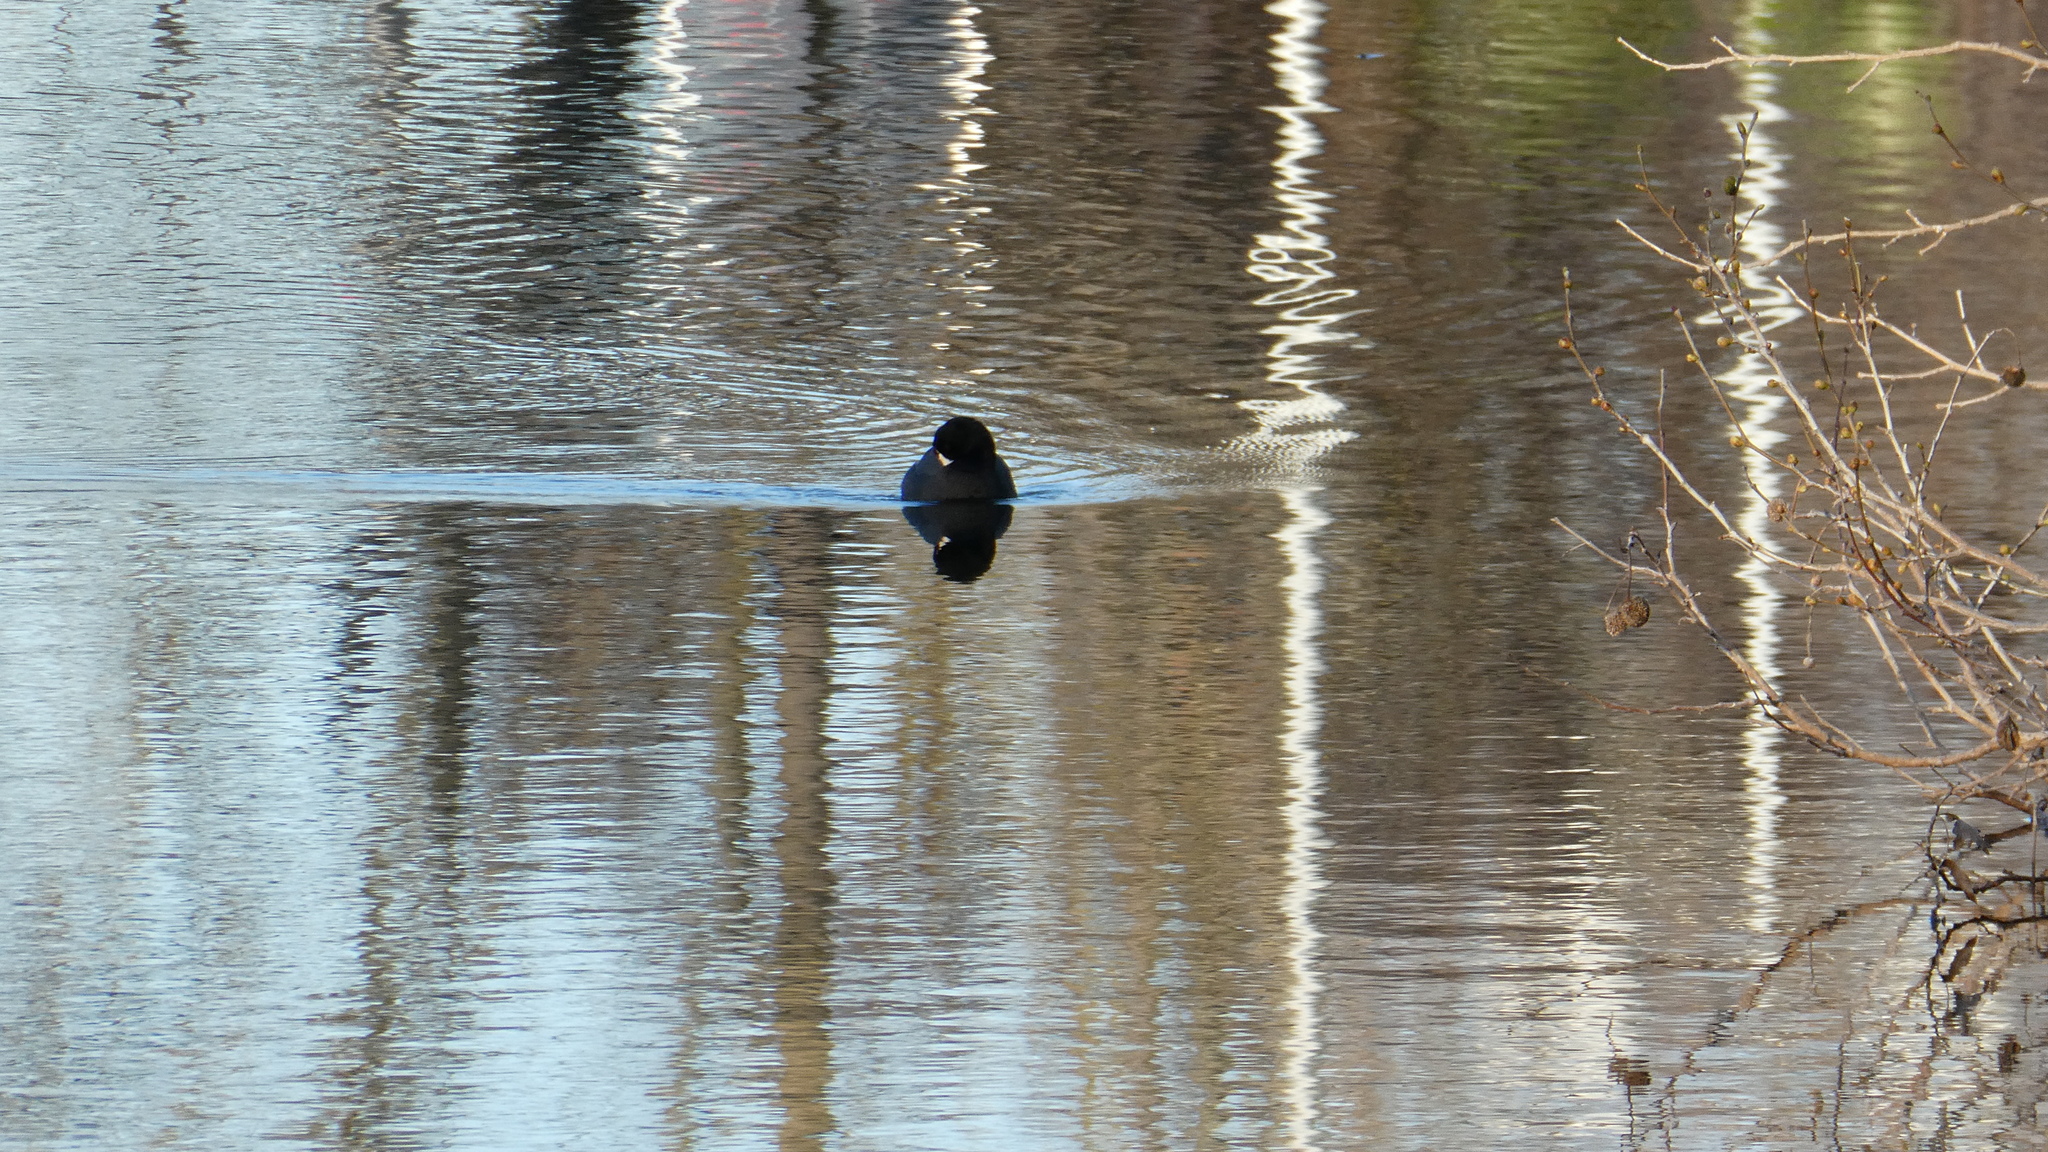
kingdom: Animalia
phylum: Chordata
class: Aves
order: Gruiformes
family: Rallidae
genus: Fulica
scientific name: Fulica americana
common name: American coot
